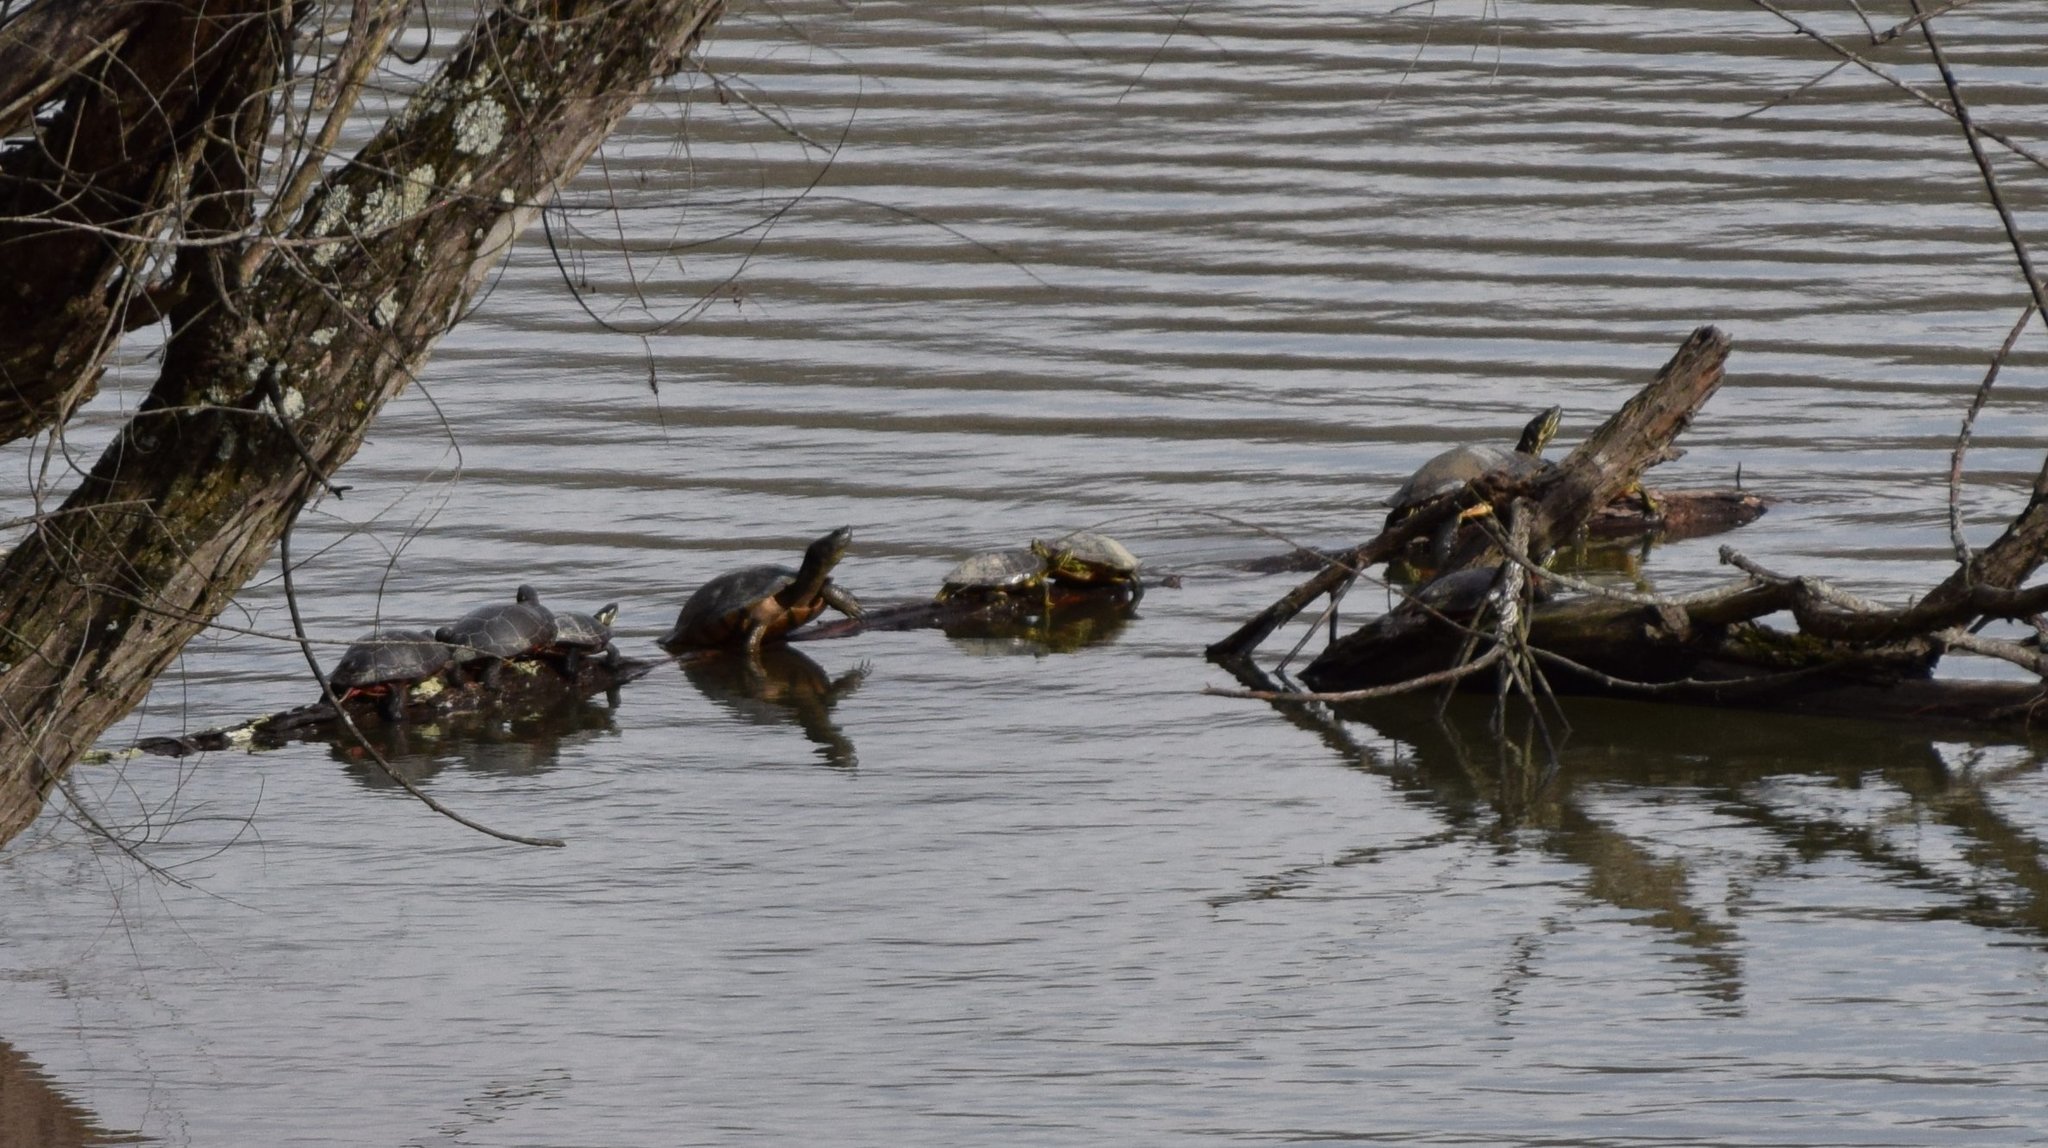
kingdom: Animalia
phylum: Chordata
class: Testudines
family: Emydidae
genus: Chrysemys
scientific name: Chrysemys picta
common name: Painted turtle
